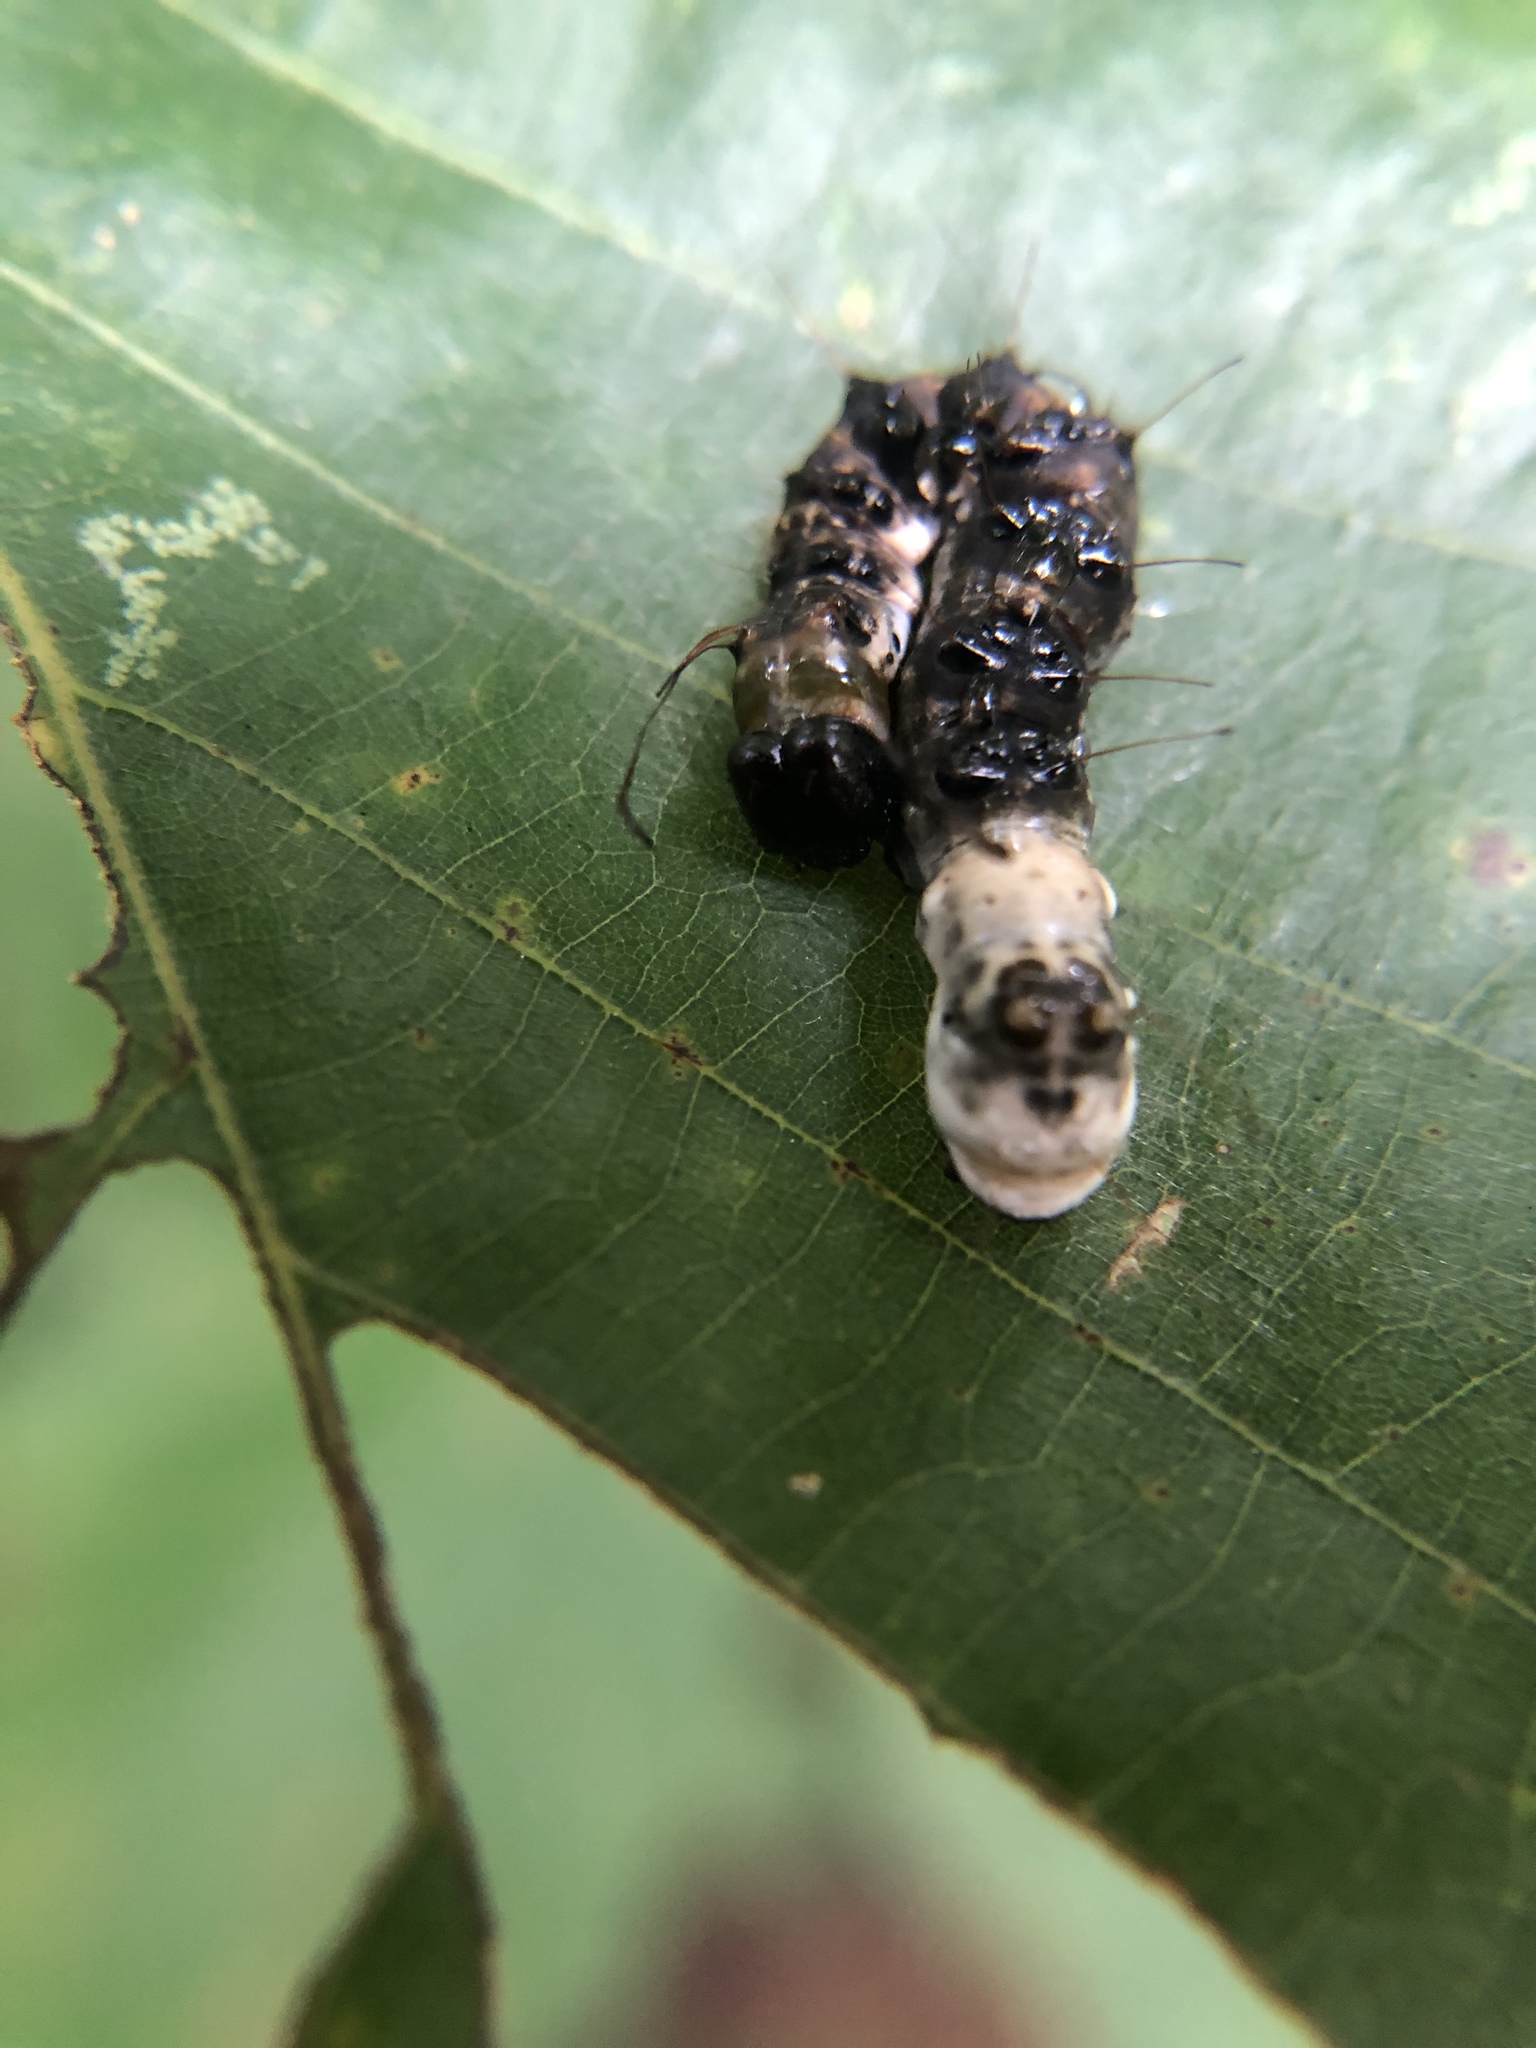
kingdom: Animalia
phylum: Arthropoda
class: Insecta
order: Lepidoptera
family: Noctuidae
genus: Acronicta
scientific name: Acronicta funeralis
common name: Funerary dagger
